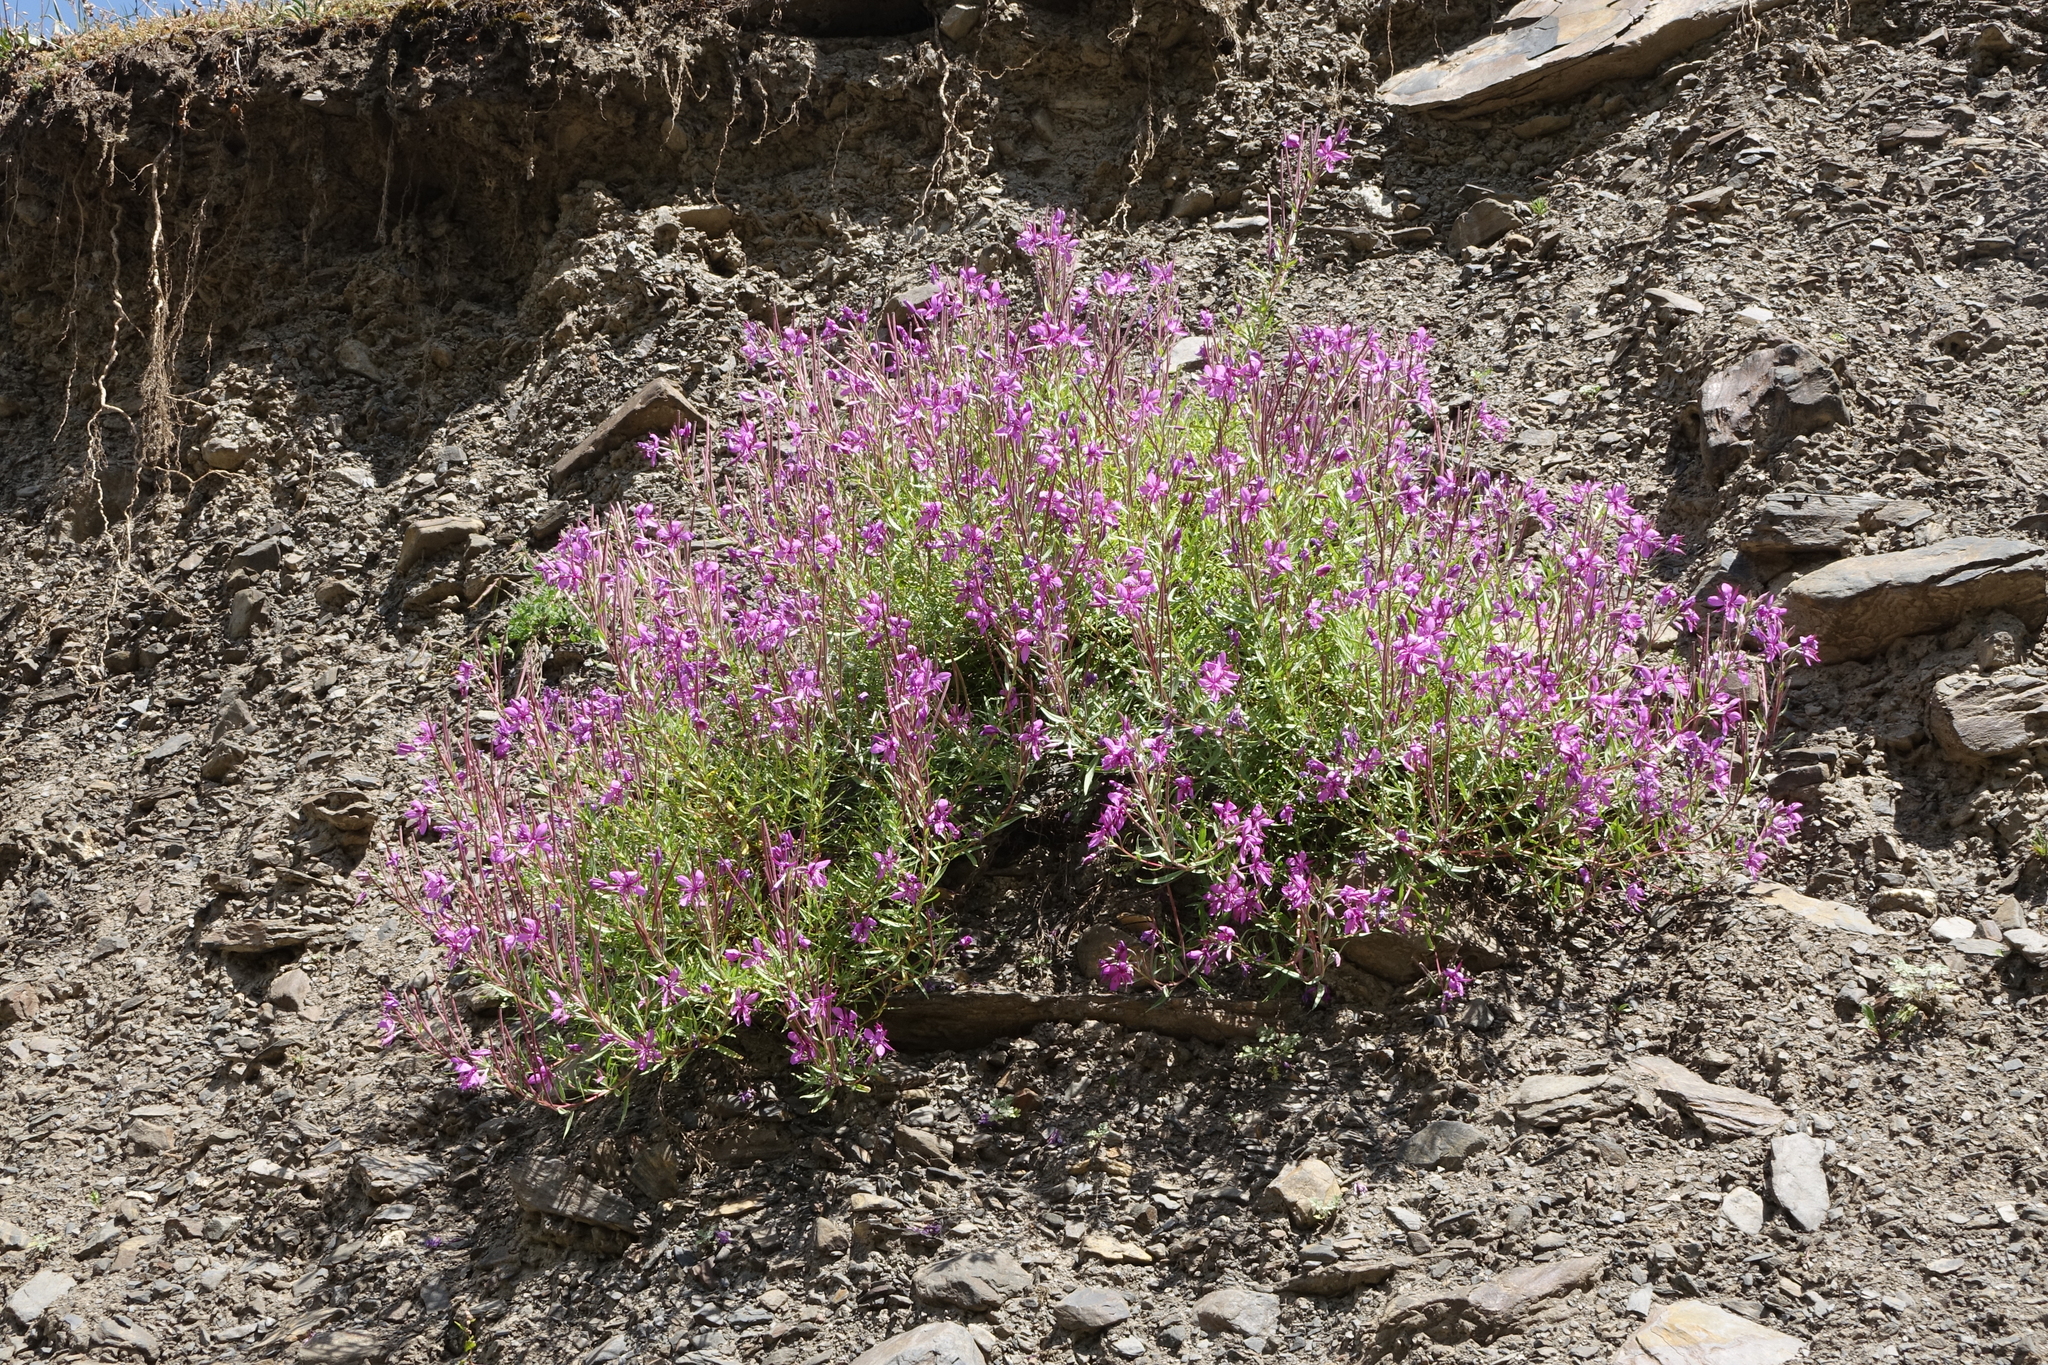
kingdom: Plantae
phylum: Tracheophyta
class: Magnoliopsida
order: Myrtales
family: Onagraceae
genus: Chamaenerion
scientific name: Chamaenerion colchicum
